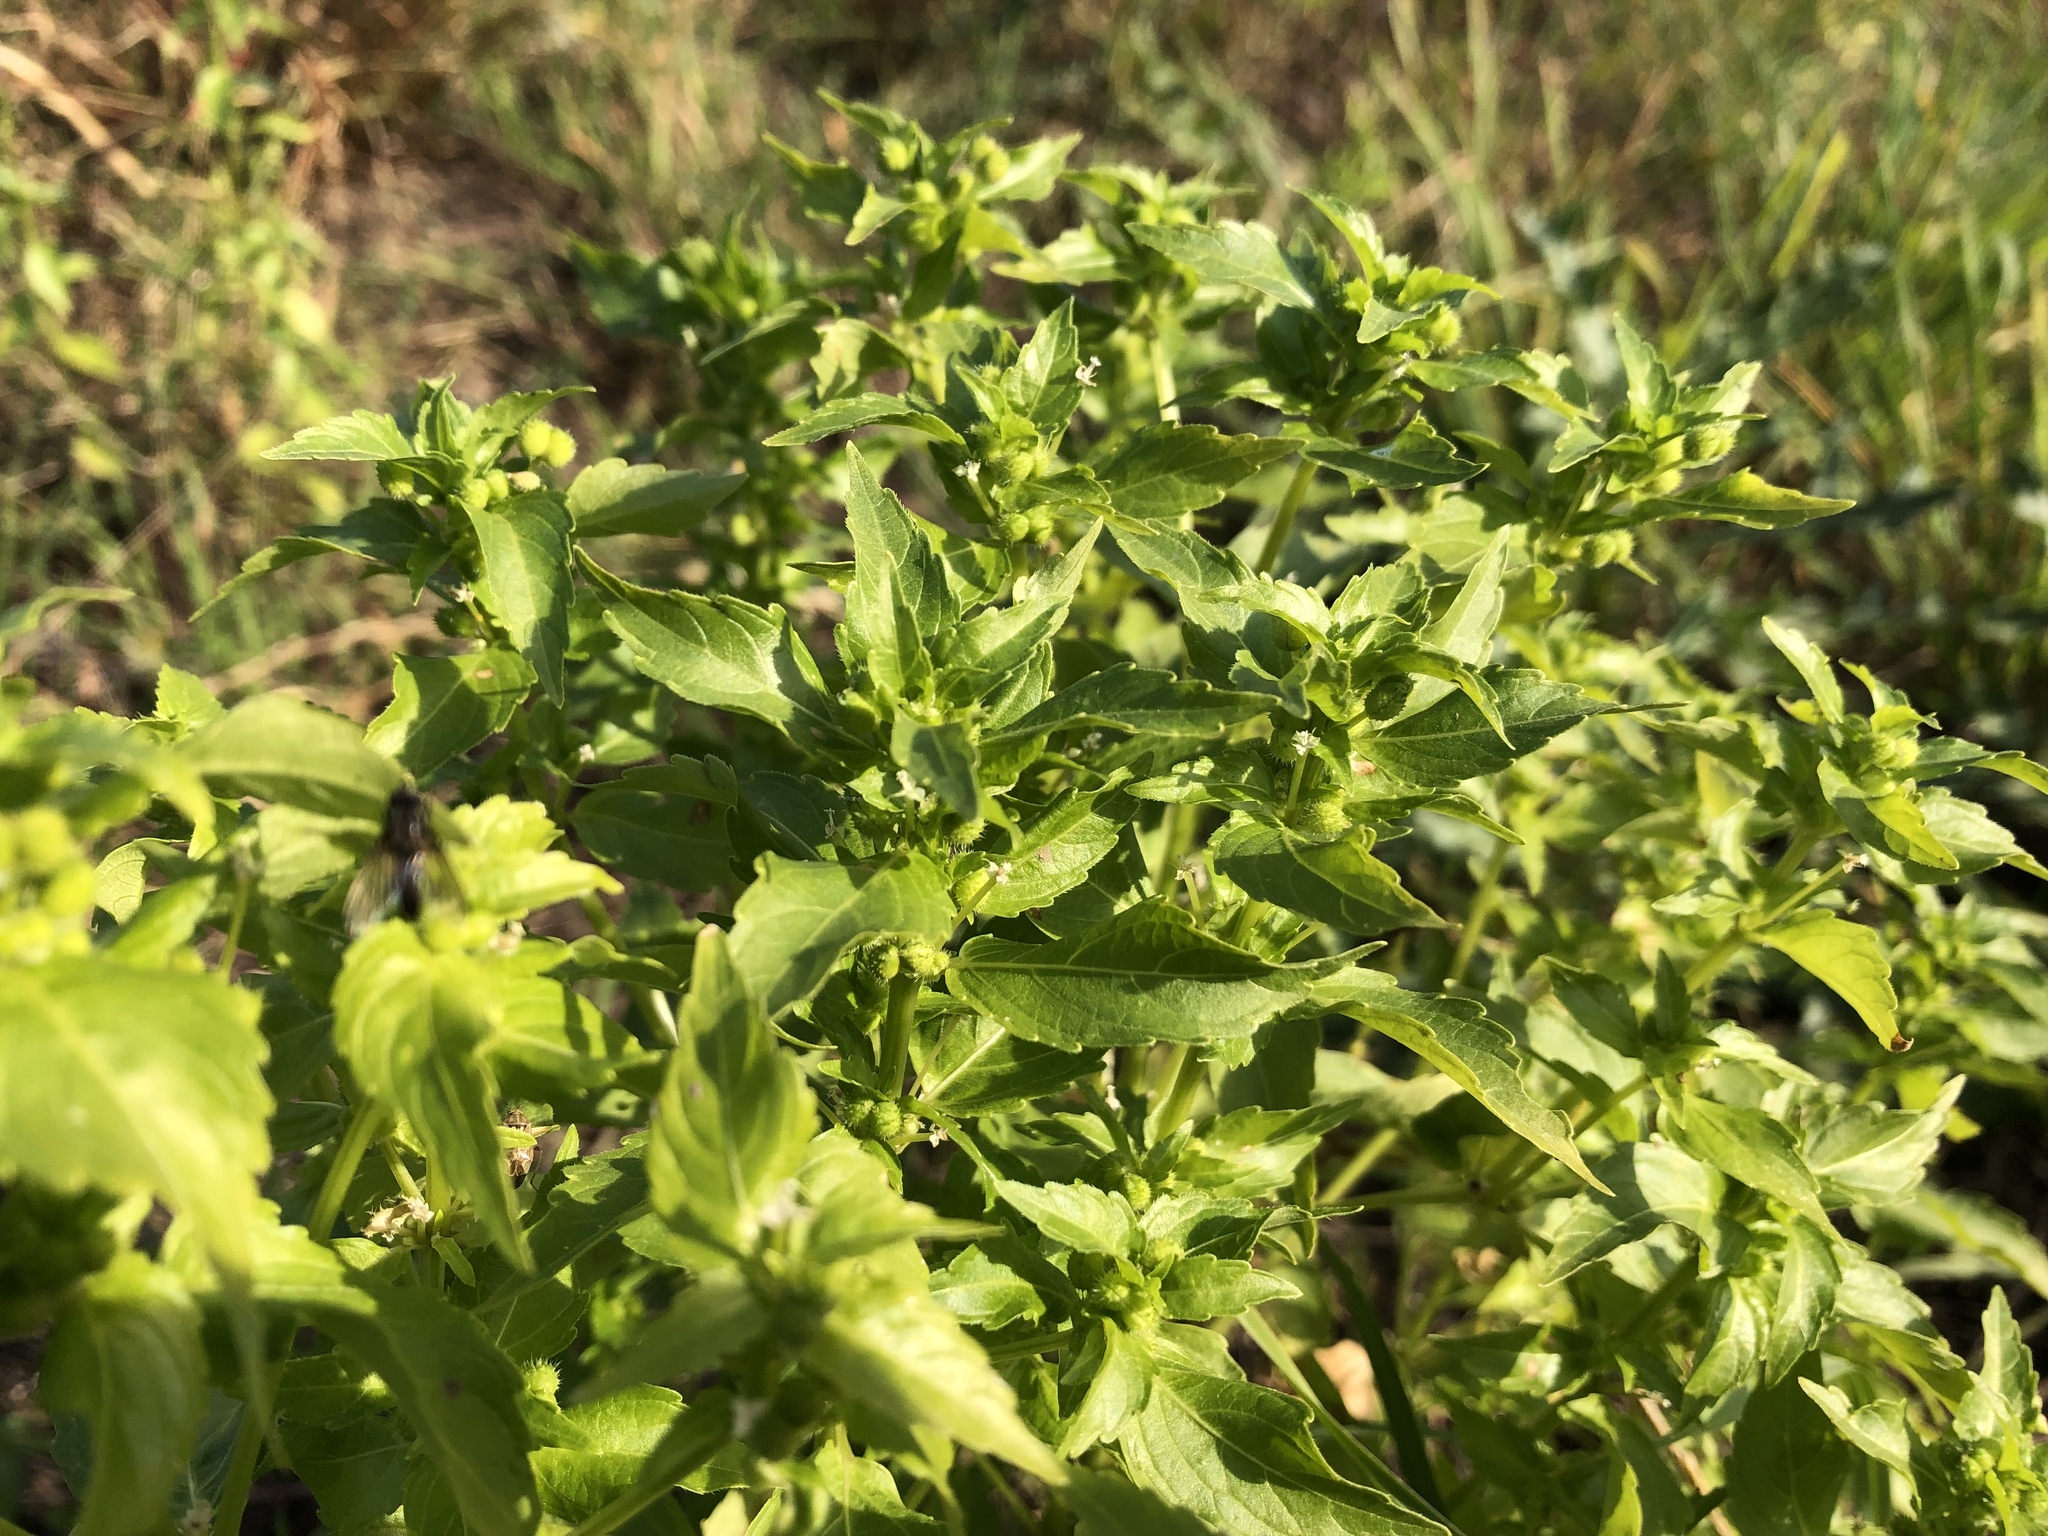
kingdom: Plantae
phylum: Tracheophyta
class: Magnoliopsida
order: Malpighiales
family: Euphorbiaceae
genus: Mercurialis
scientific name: Mercurialis annua
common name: Annual mercury
